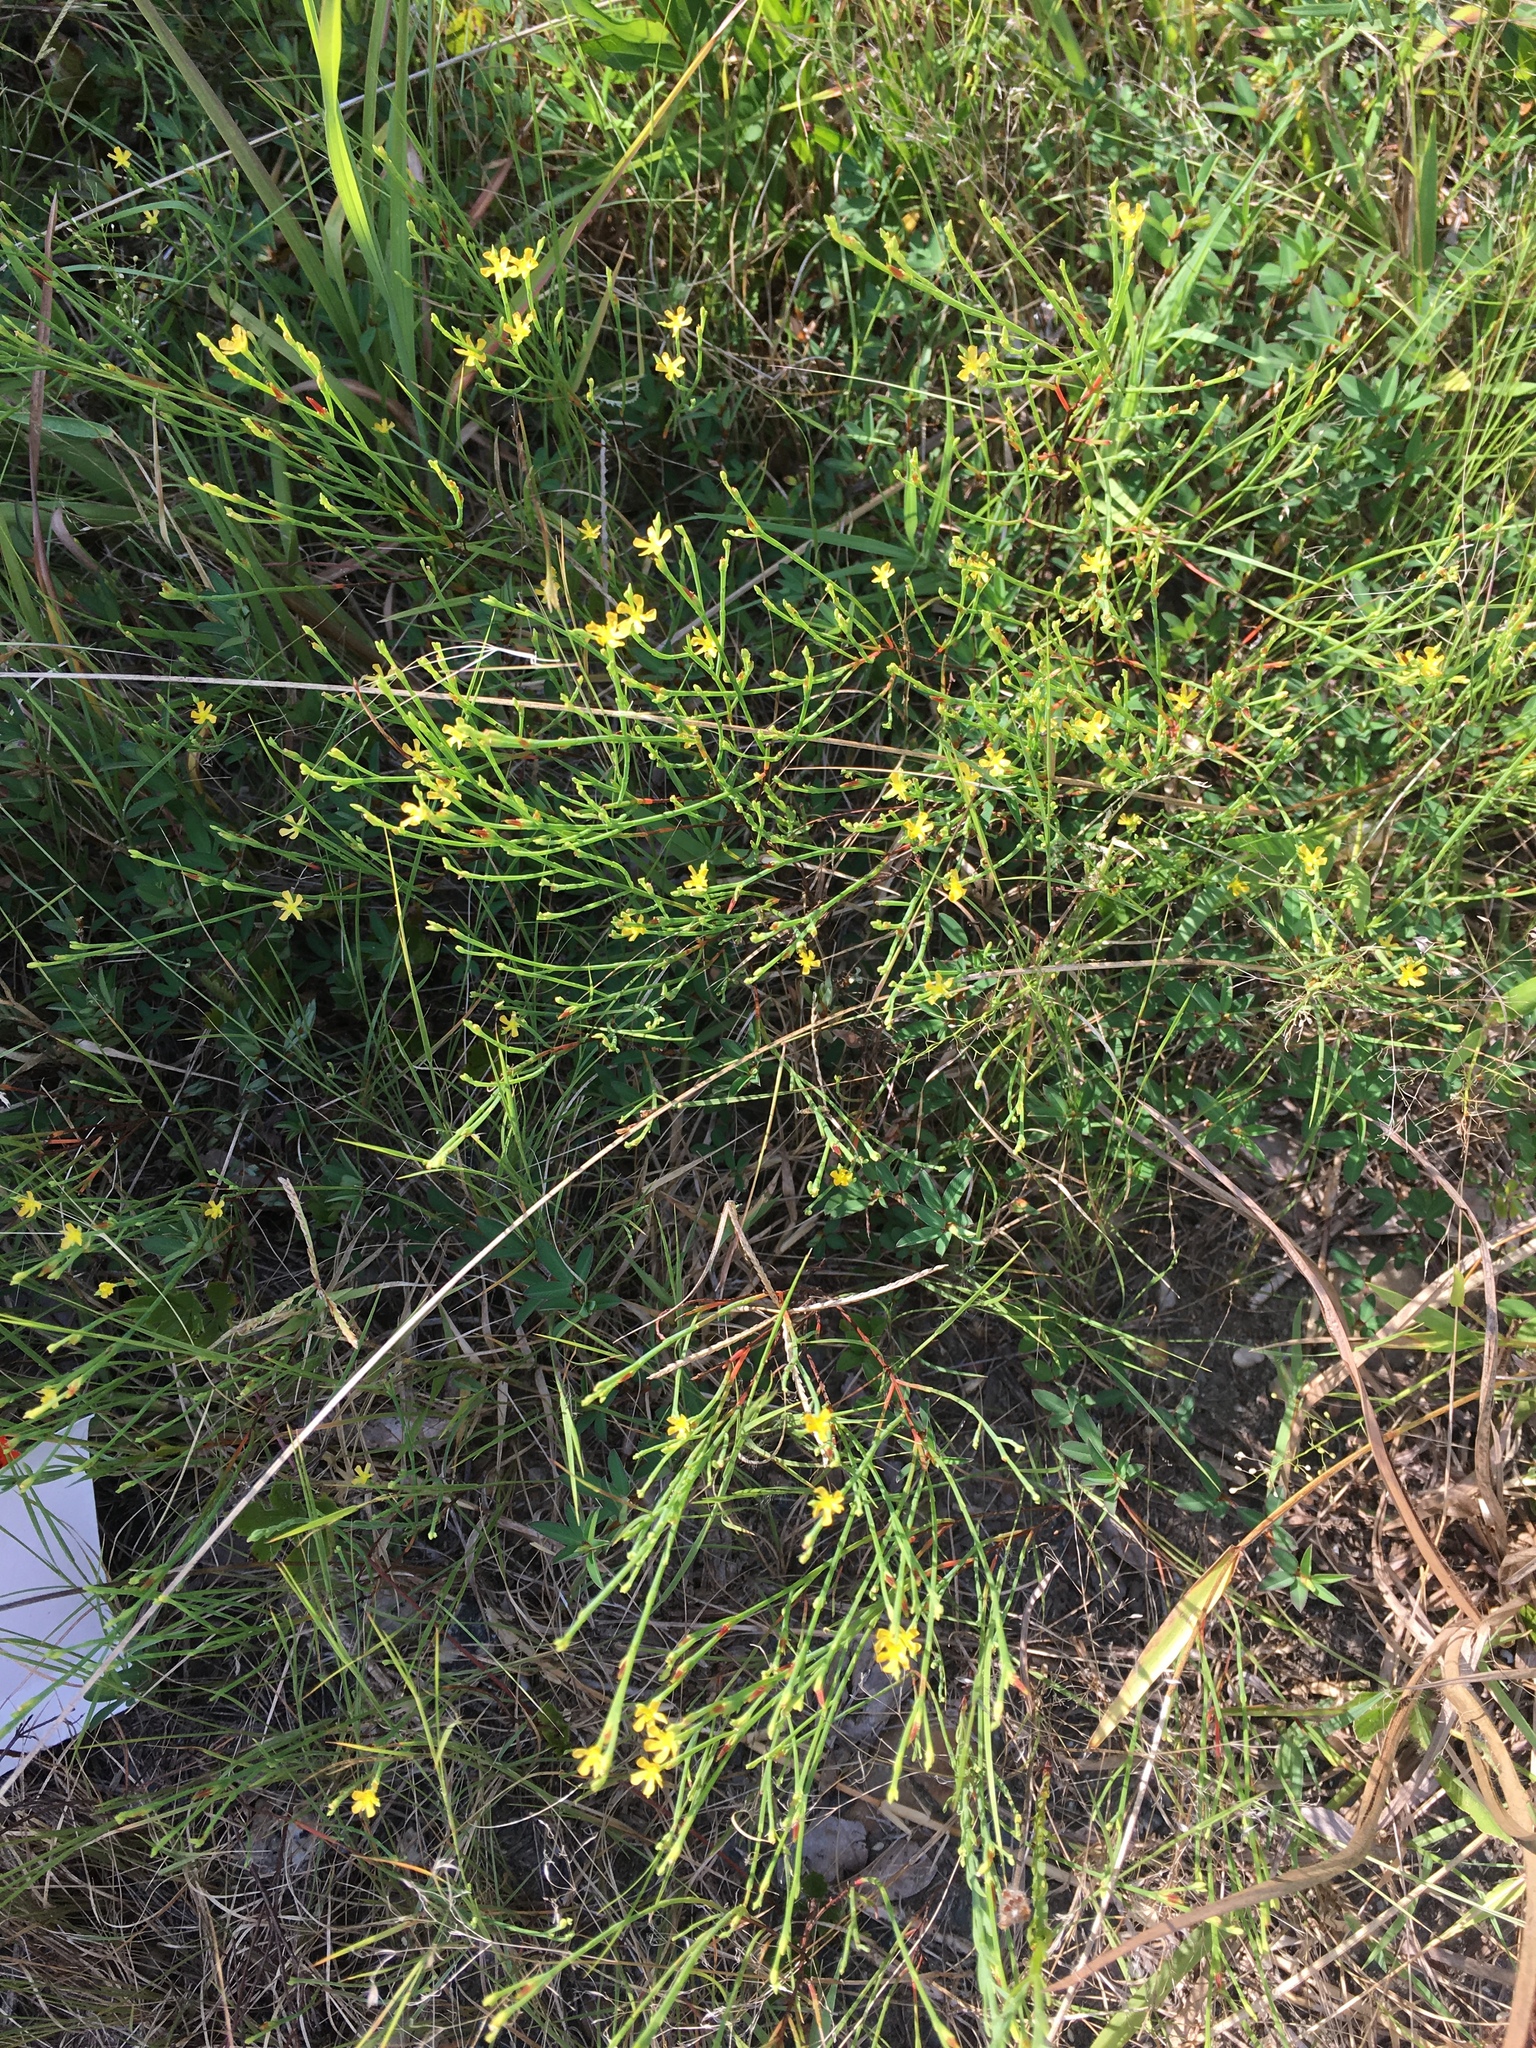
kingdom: Plantae
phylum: Tracheophyta
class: Magnoliopsida
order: Malpighiales
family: Hypericaceae
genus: Hypericum
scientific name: Hypericum gentianoides
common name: Gentian-leaved st. john's-wort
